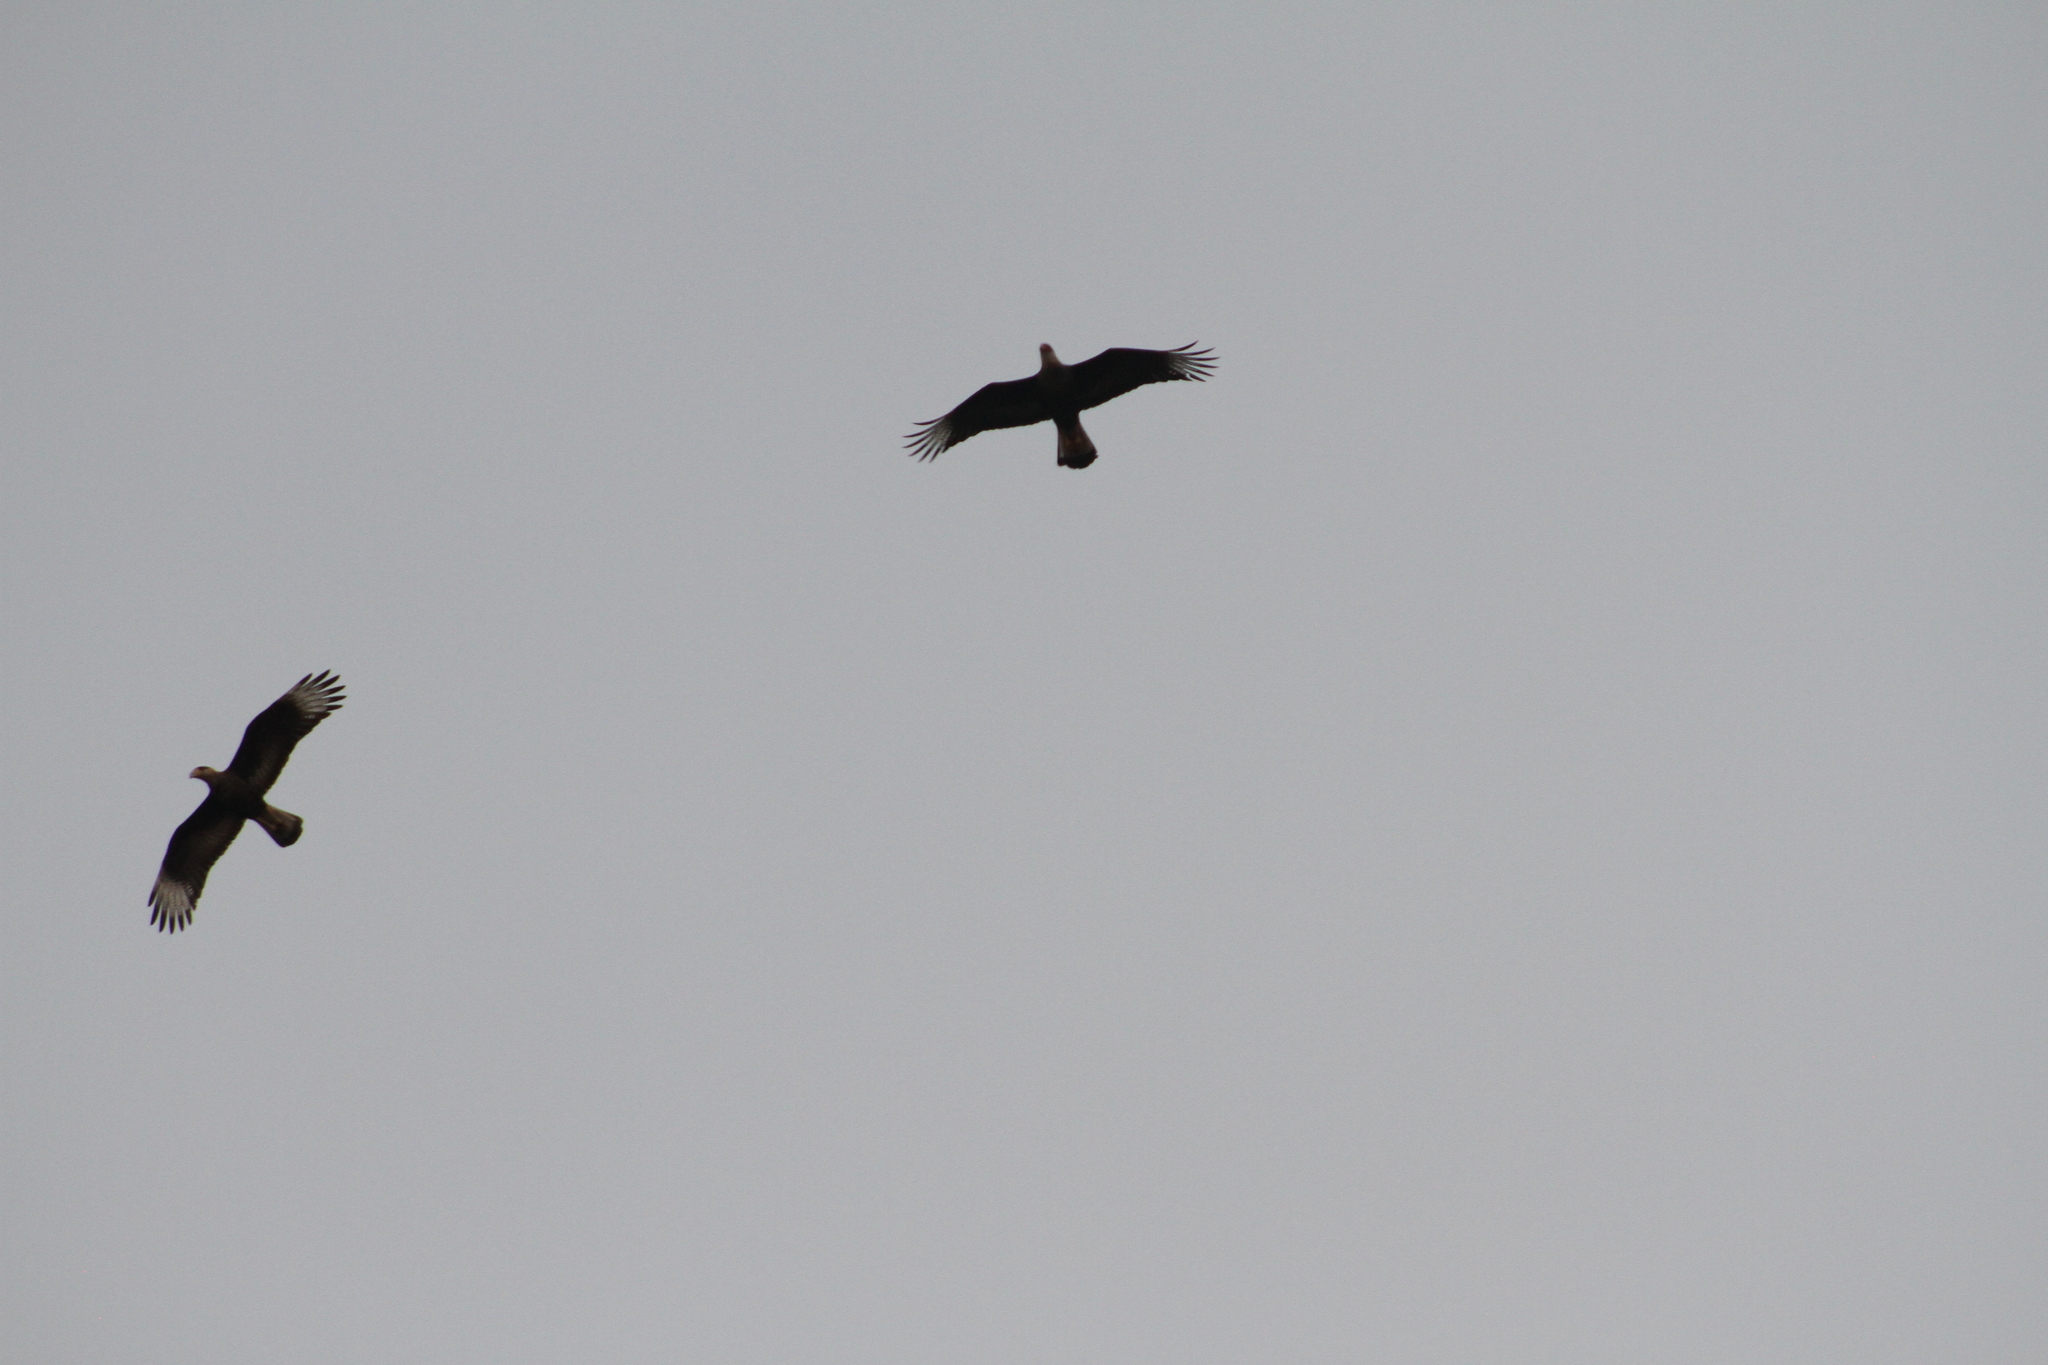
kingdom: Animalia
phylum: Chordata
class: Aves
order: Falconiformes
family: Falconidae
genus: Caracara
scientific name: Caracara plancus
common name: Southern caracara
